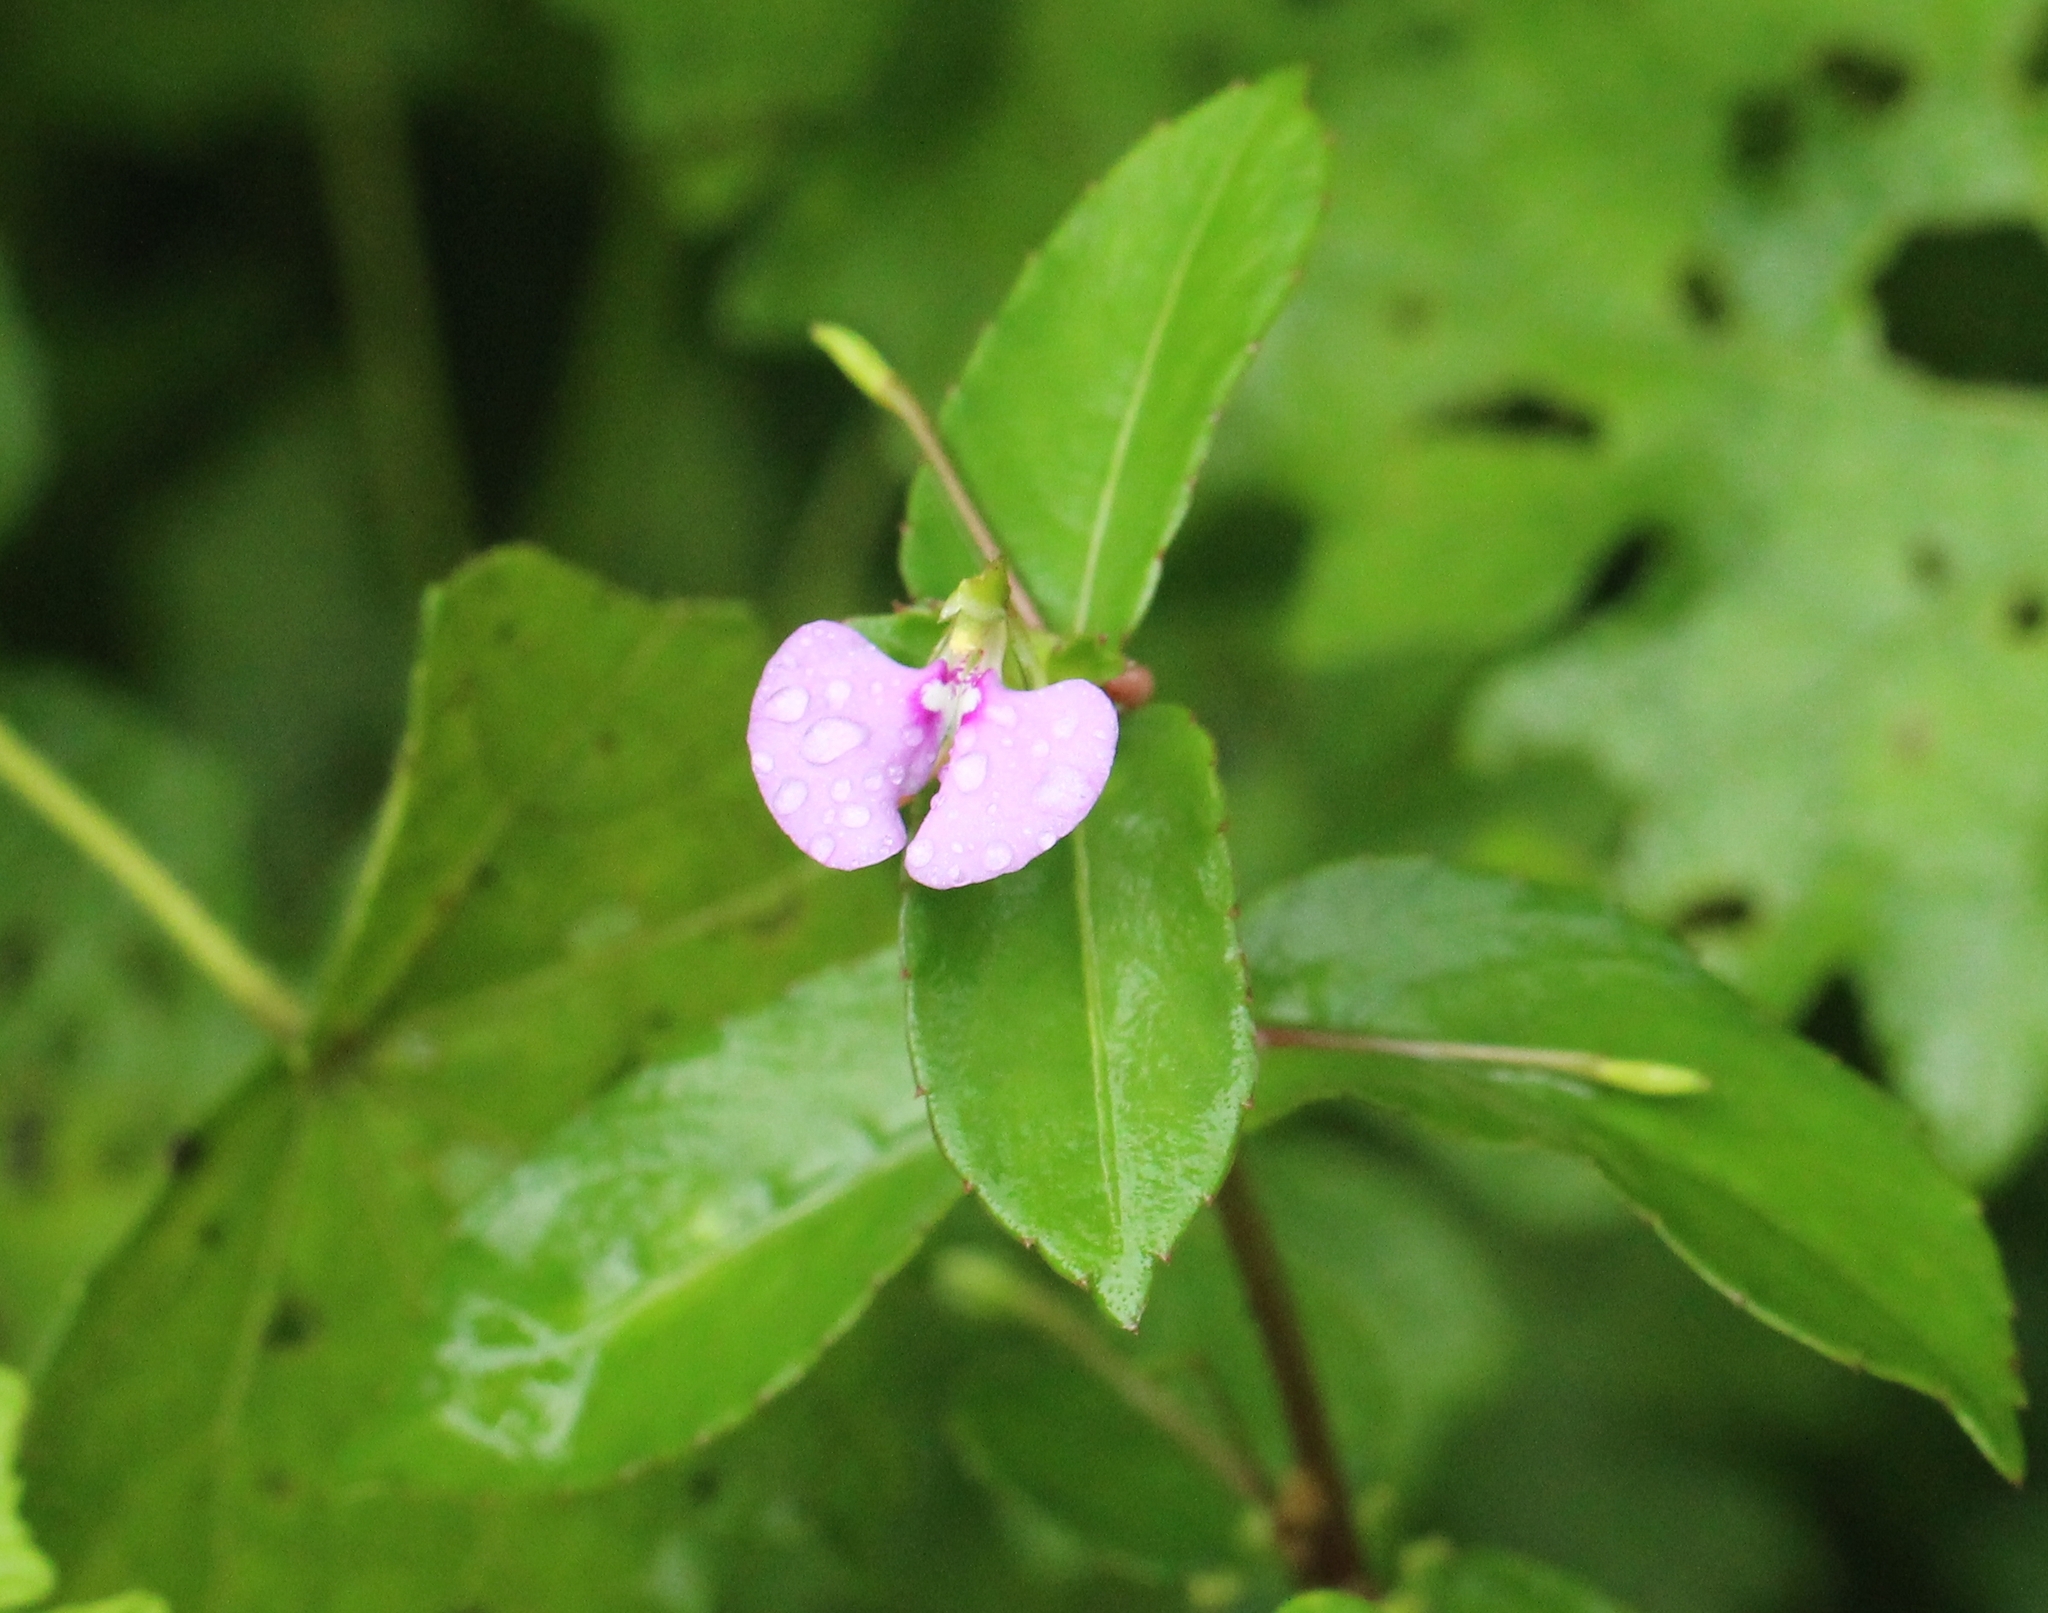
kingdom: Plantae
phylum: Tracheophyta
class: Magnoliopsida
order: Ericales
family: Balsaminaceae
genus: Impatiens
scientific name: Impatiens minor
